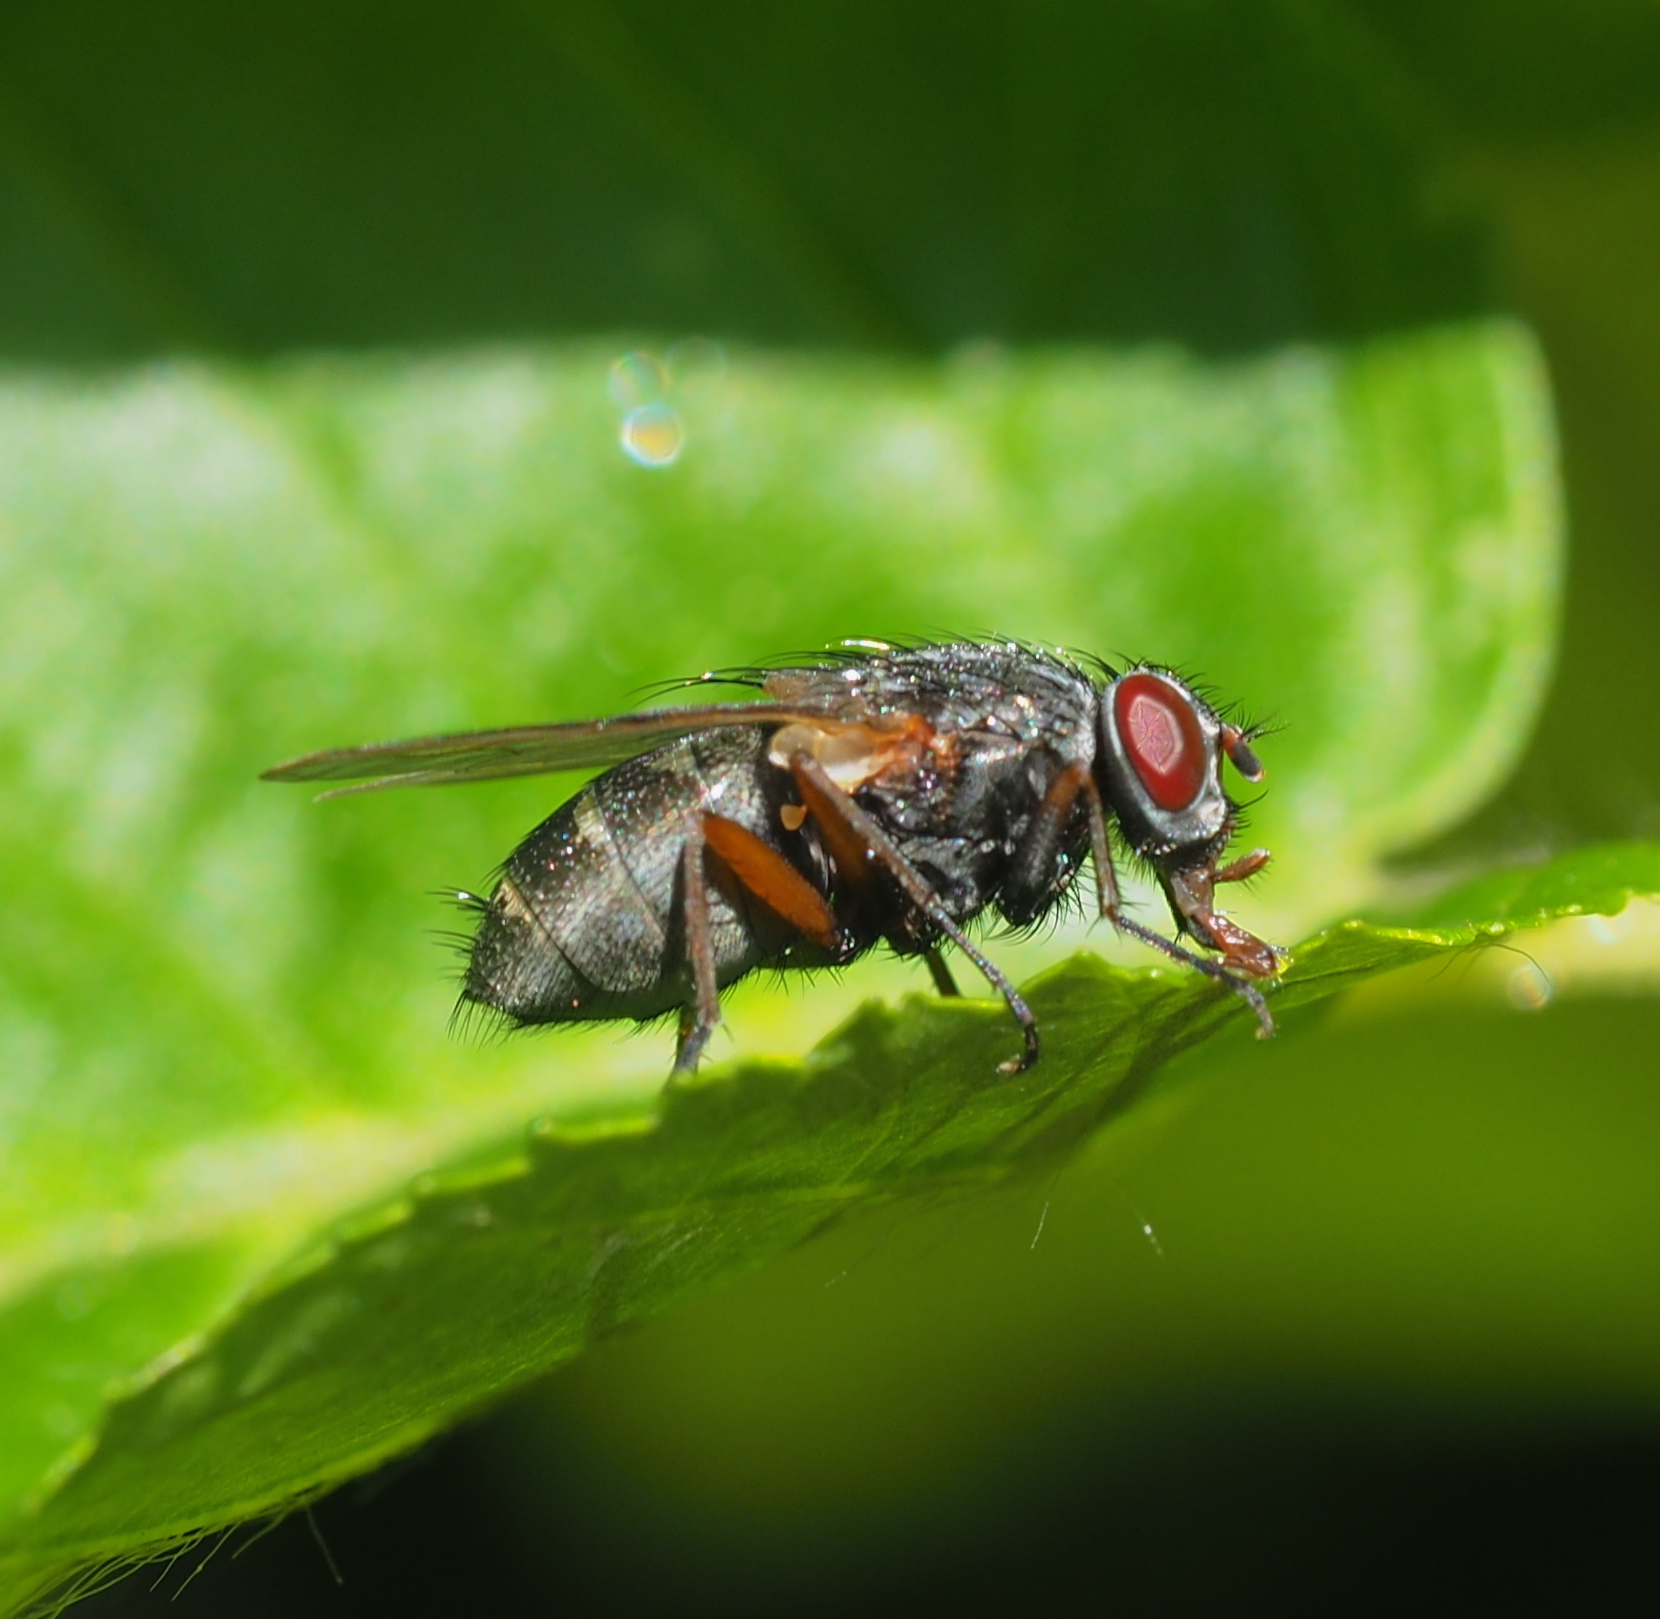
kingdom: Animalia
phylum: Arthropoda
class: Insecta
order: Diptera
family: Muscidae
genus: Muscina
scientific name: Muscina stabulans
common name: False stable fly
